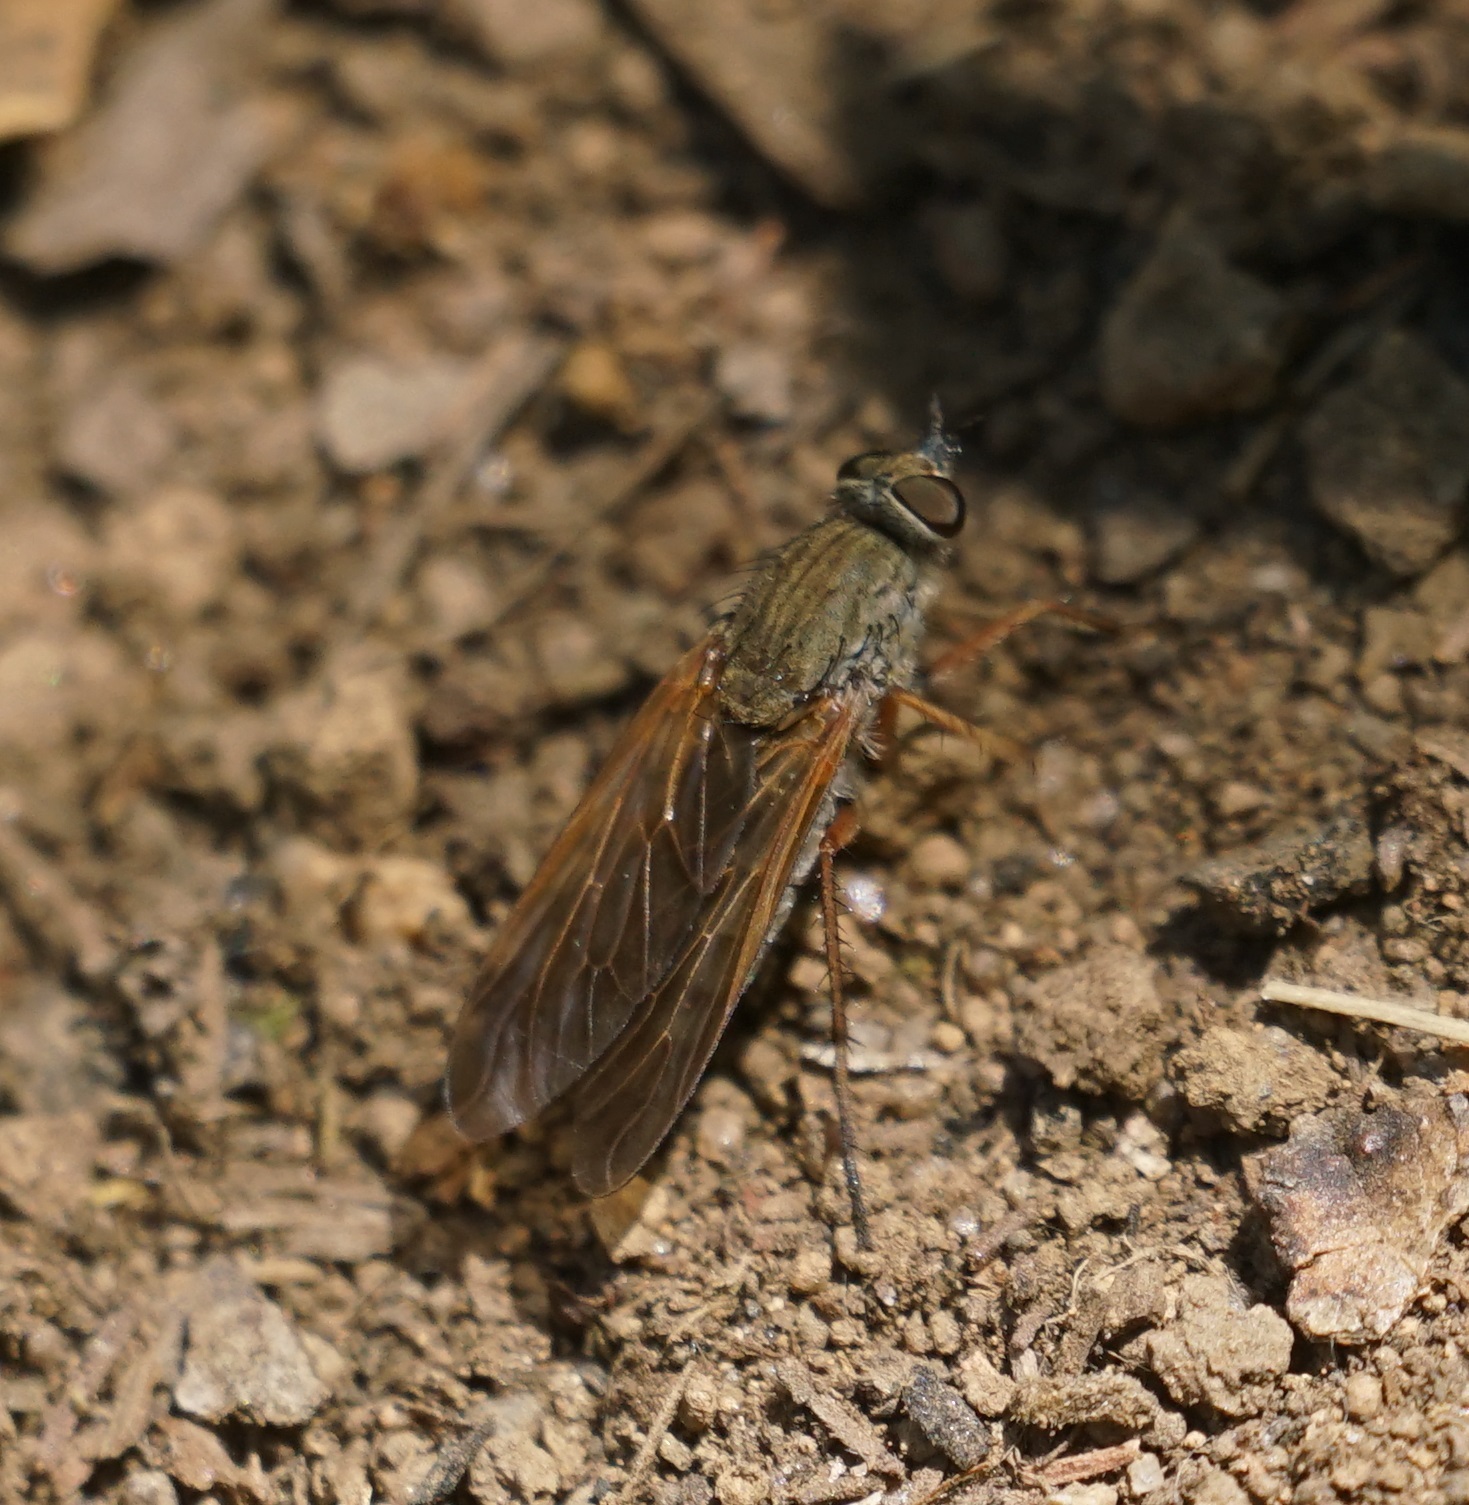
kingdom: Animalia
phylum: Arthropoda
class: Insecta
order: Diptera
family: Therevidae
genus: Anabarhynchus
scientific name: Anabarhynchus apertus
